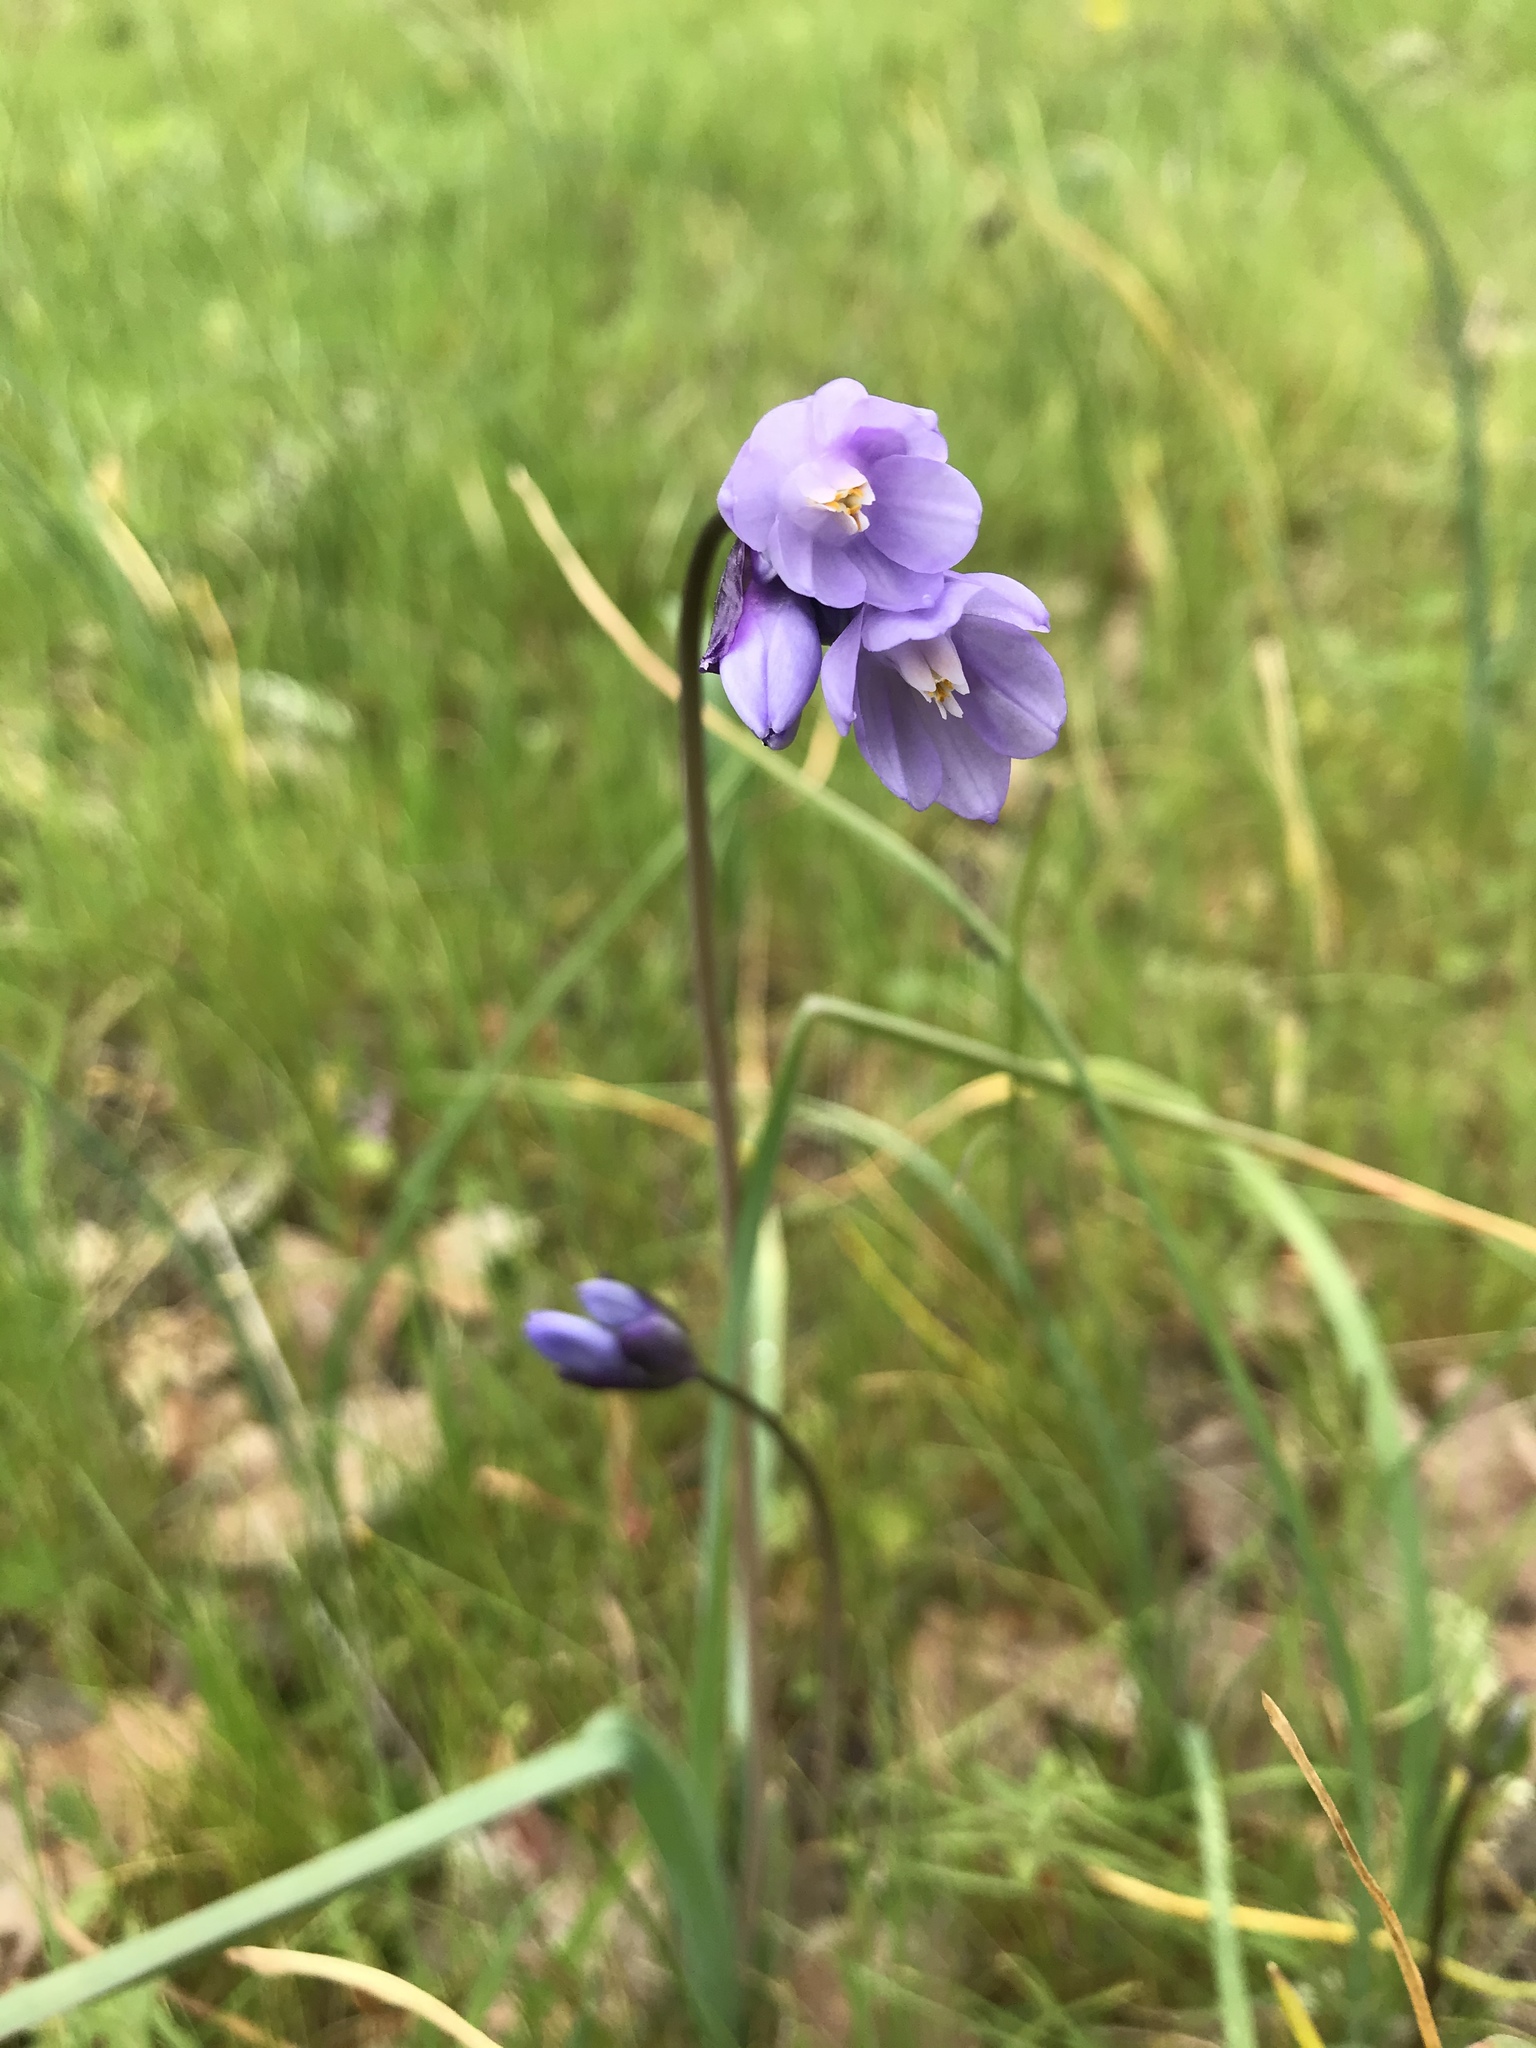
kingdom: Plantae
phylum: Tracheophyta
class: Liliopsida
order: Asparagales
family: Asparagaceae
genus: Dipterostemon
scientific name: Dipterostemon capitatus
